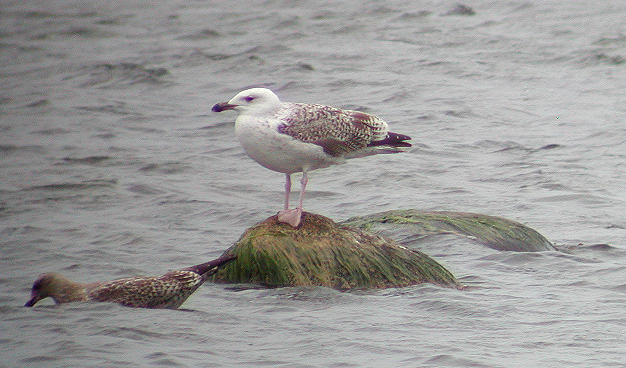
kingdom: Animalia
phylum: Chordata
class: Aves
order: Charadriiformes
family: Laridae
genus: Larus
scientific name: Larus marinus
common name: Great black-backed gull
